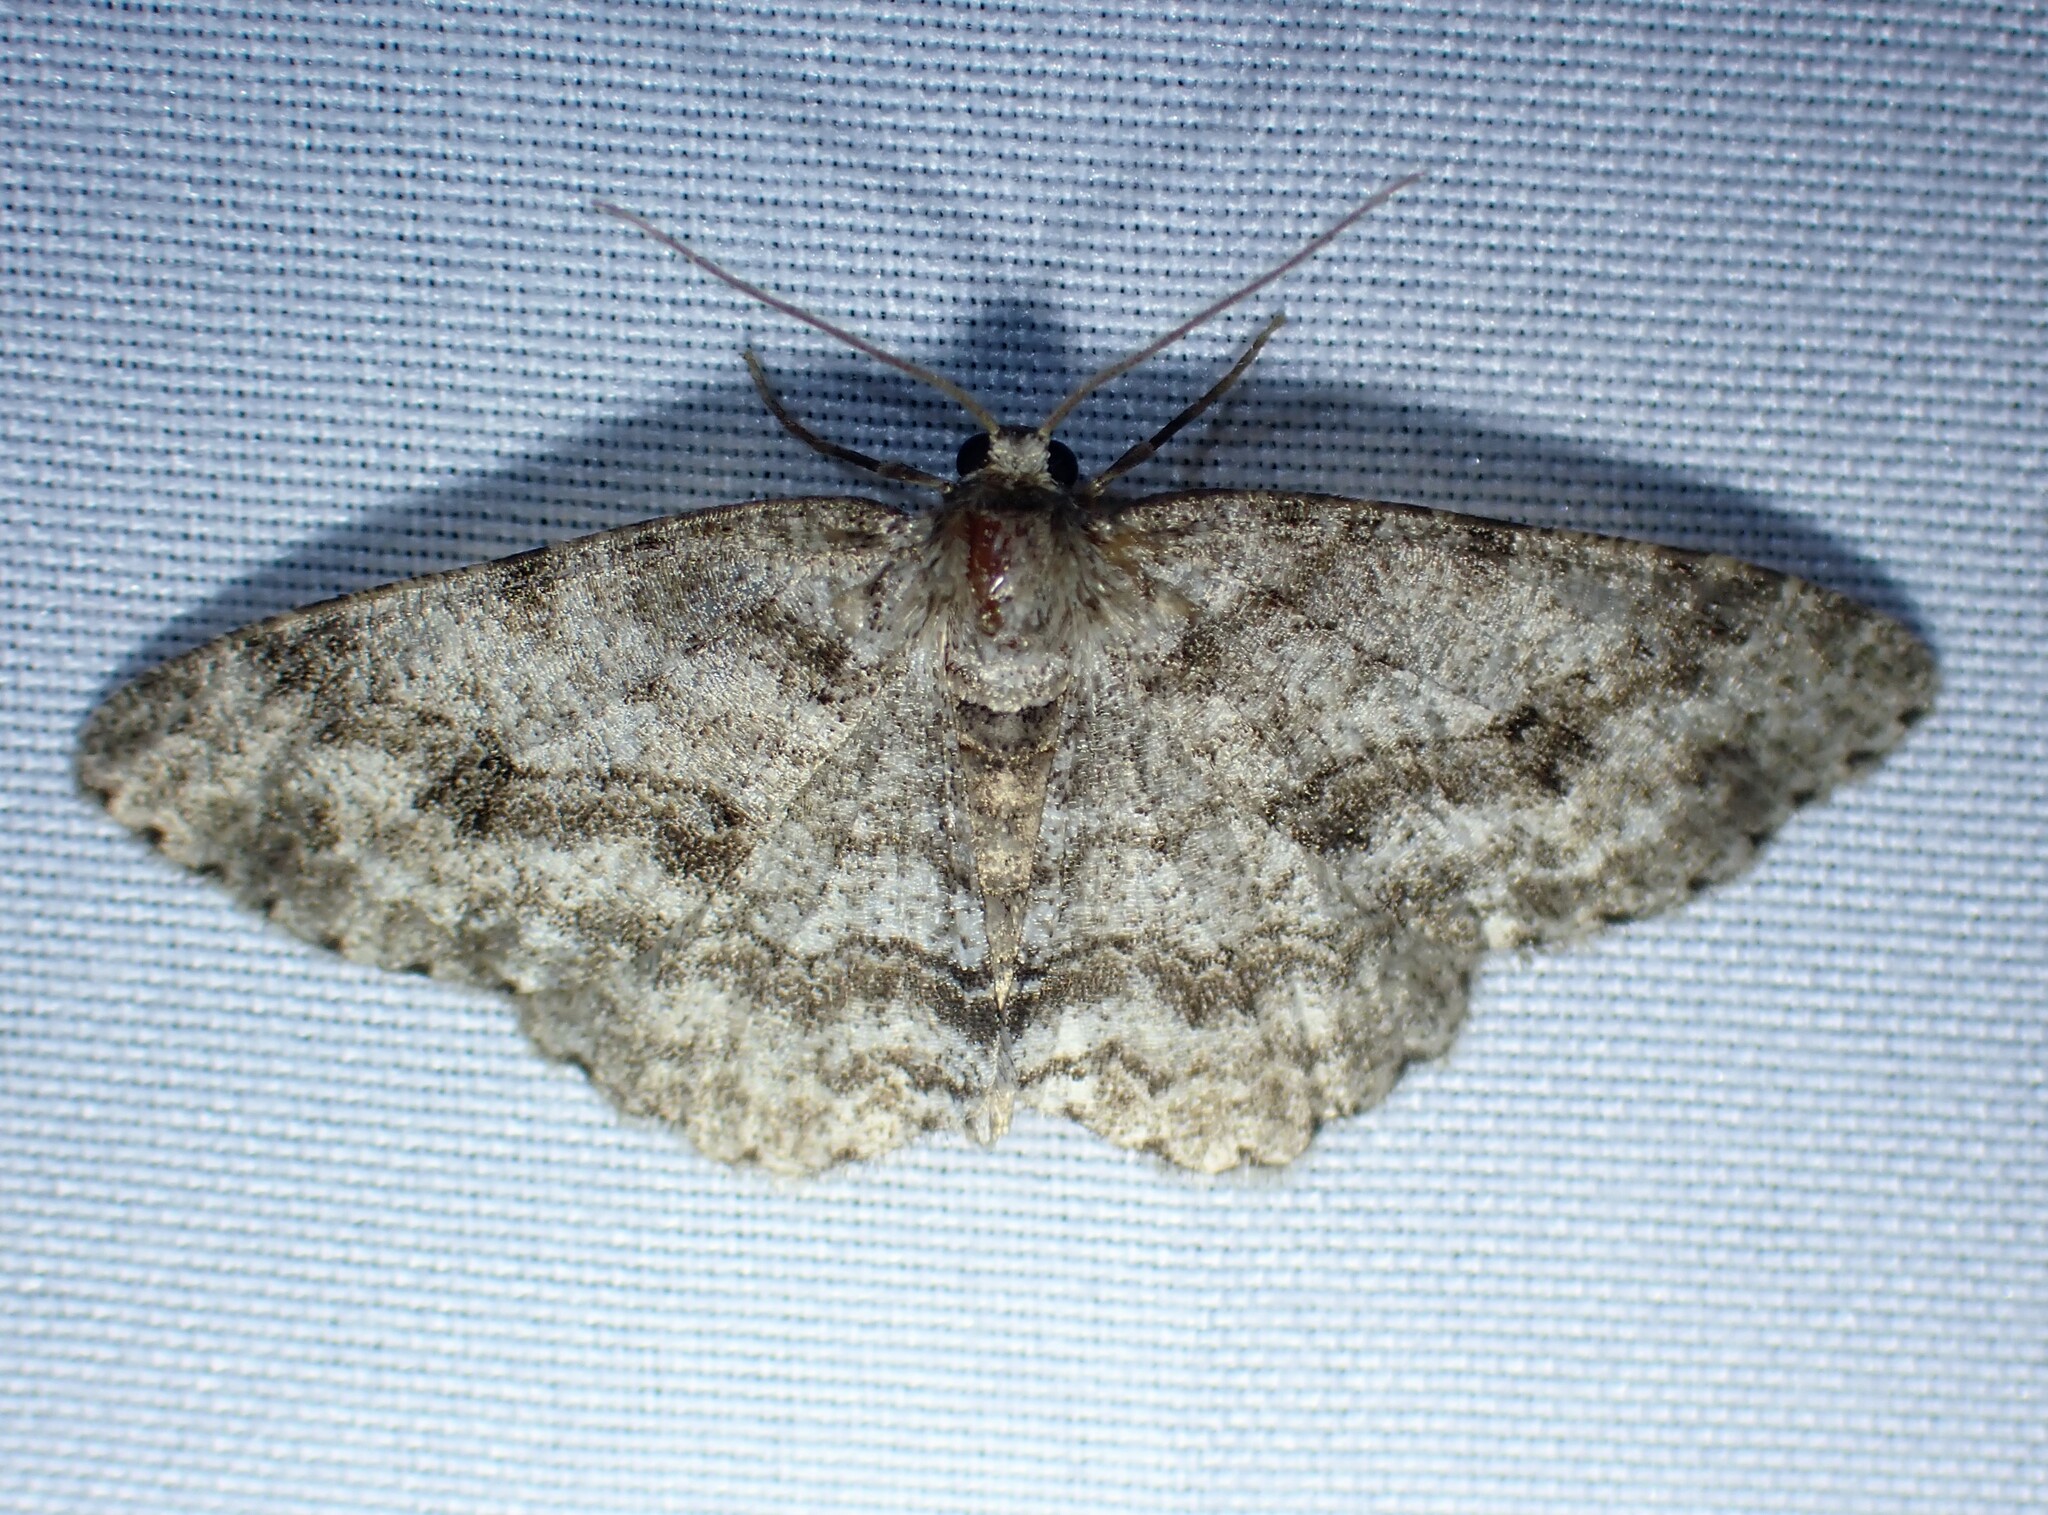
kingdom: Animalia
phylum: Arthropoda
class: Insecta
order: Lepidoptera
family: Geometridae
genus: Ectropis
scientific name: Ectropis crepuscularia
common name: Engrailed
